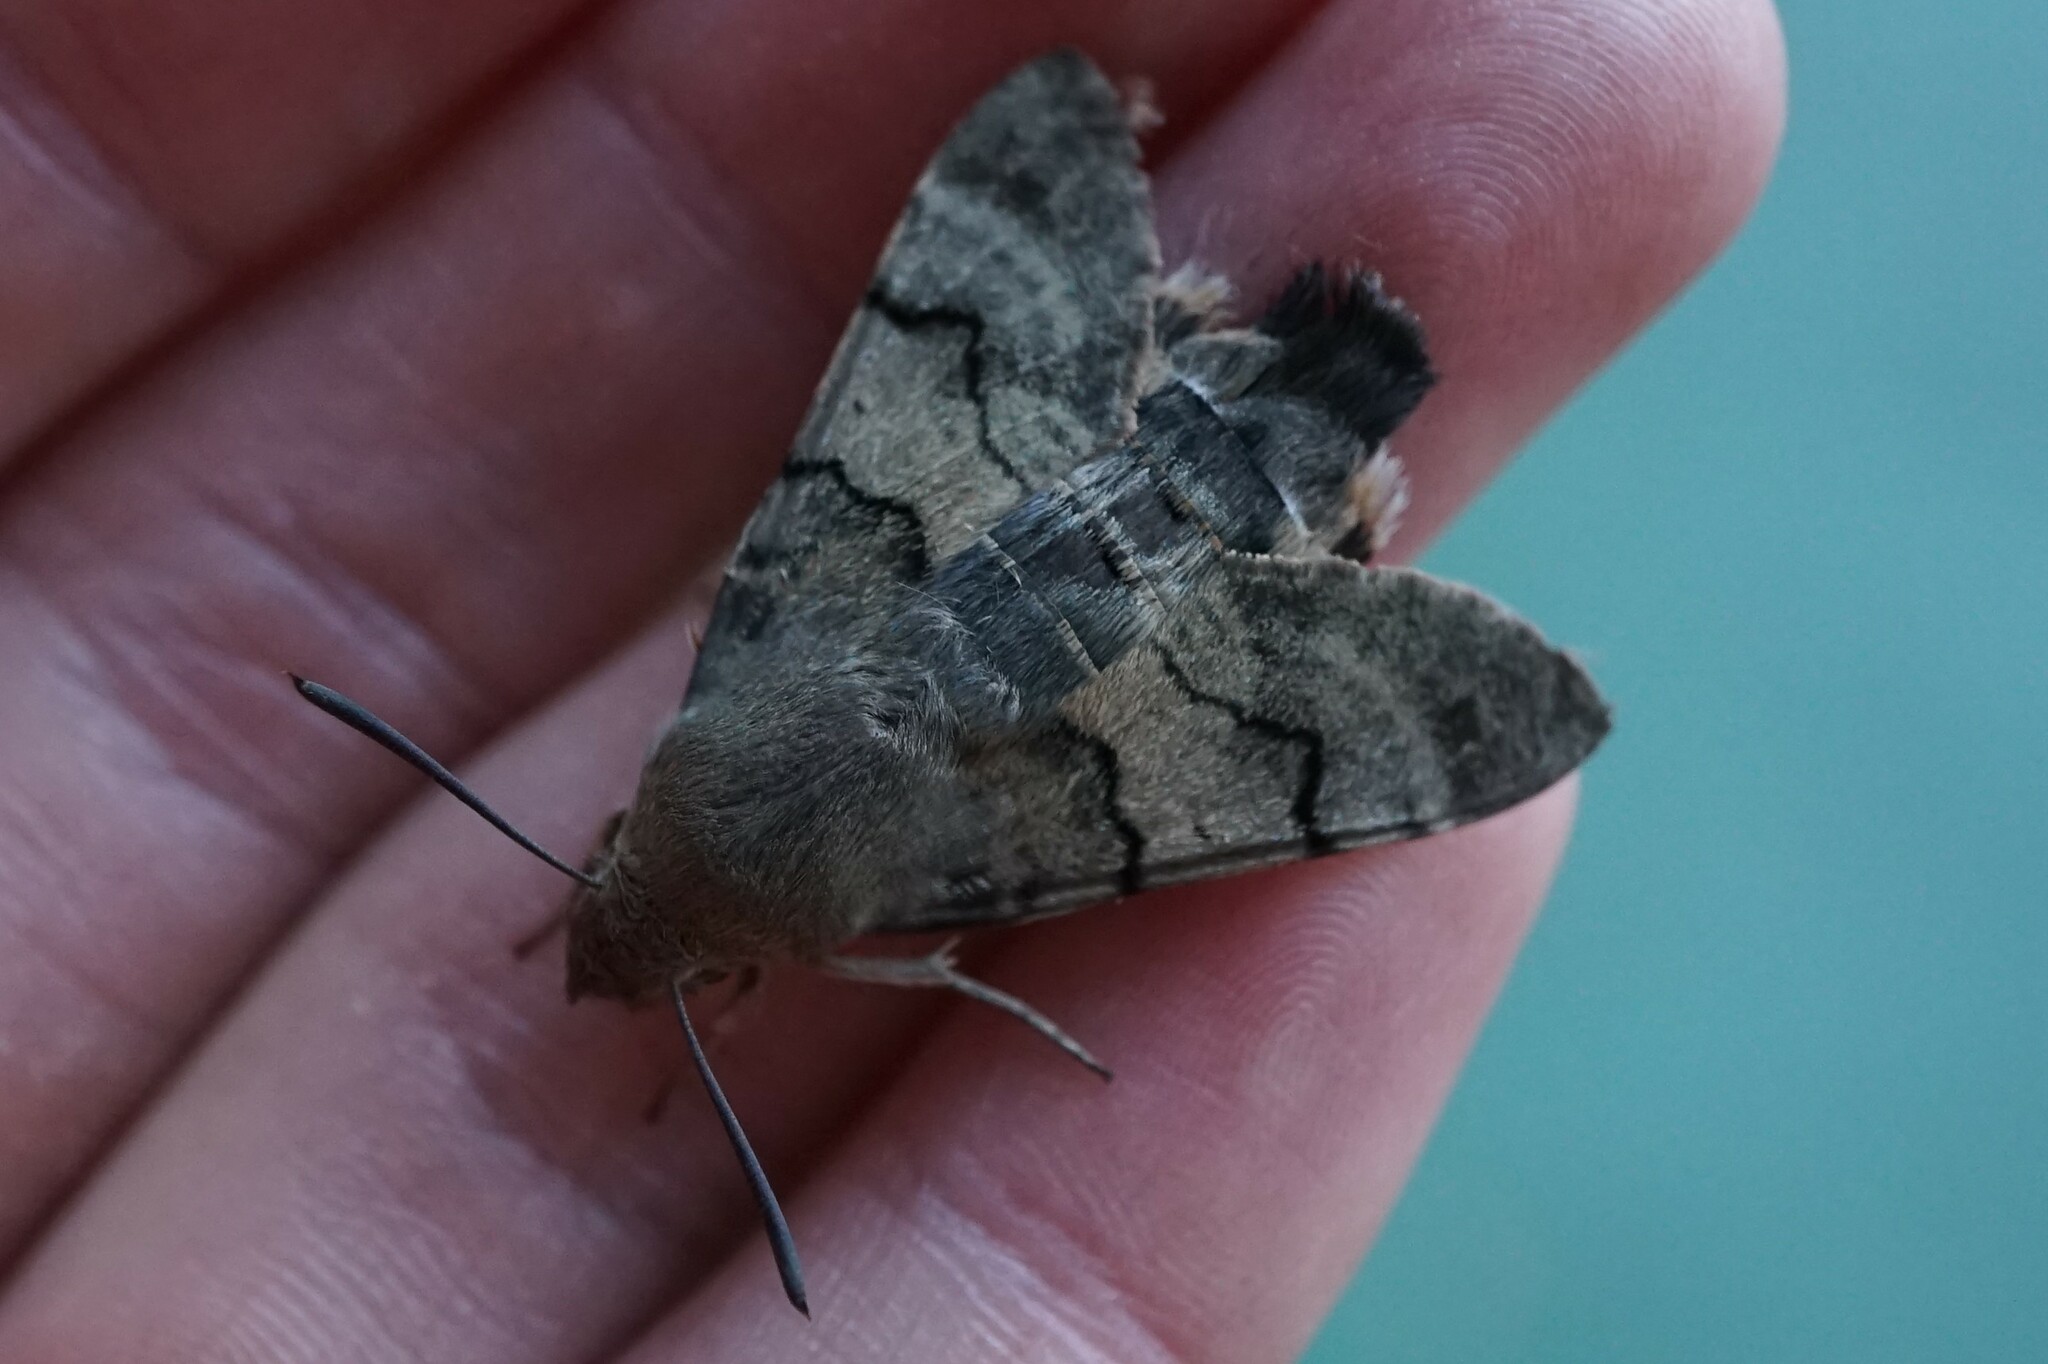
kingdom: Animalia
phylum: Arthropoda
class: Insecta
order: Lepidoptera
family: Sphingidae
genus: Macroglossum
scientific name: Macroglossum stellatarum
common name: Humming-bird hawk-moth
